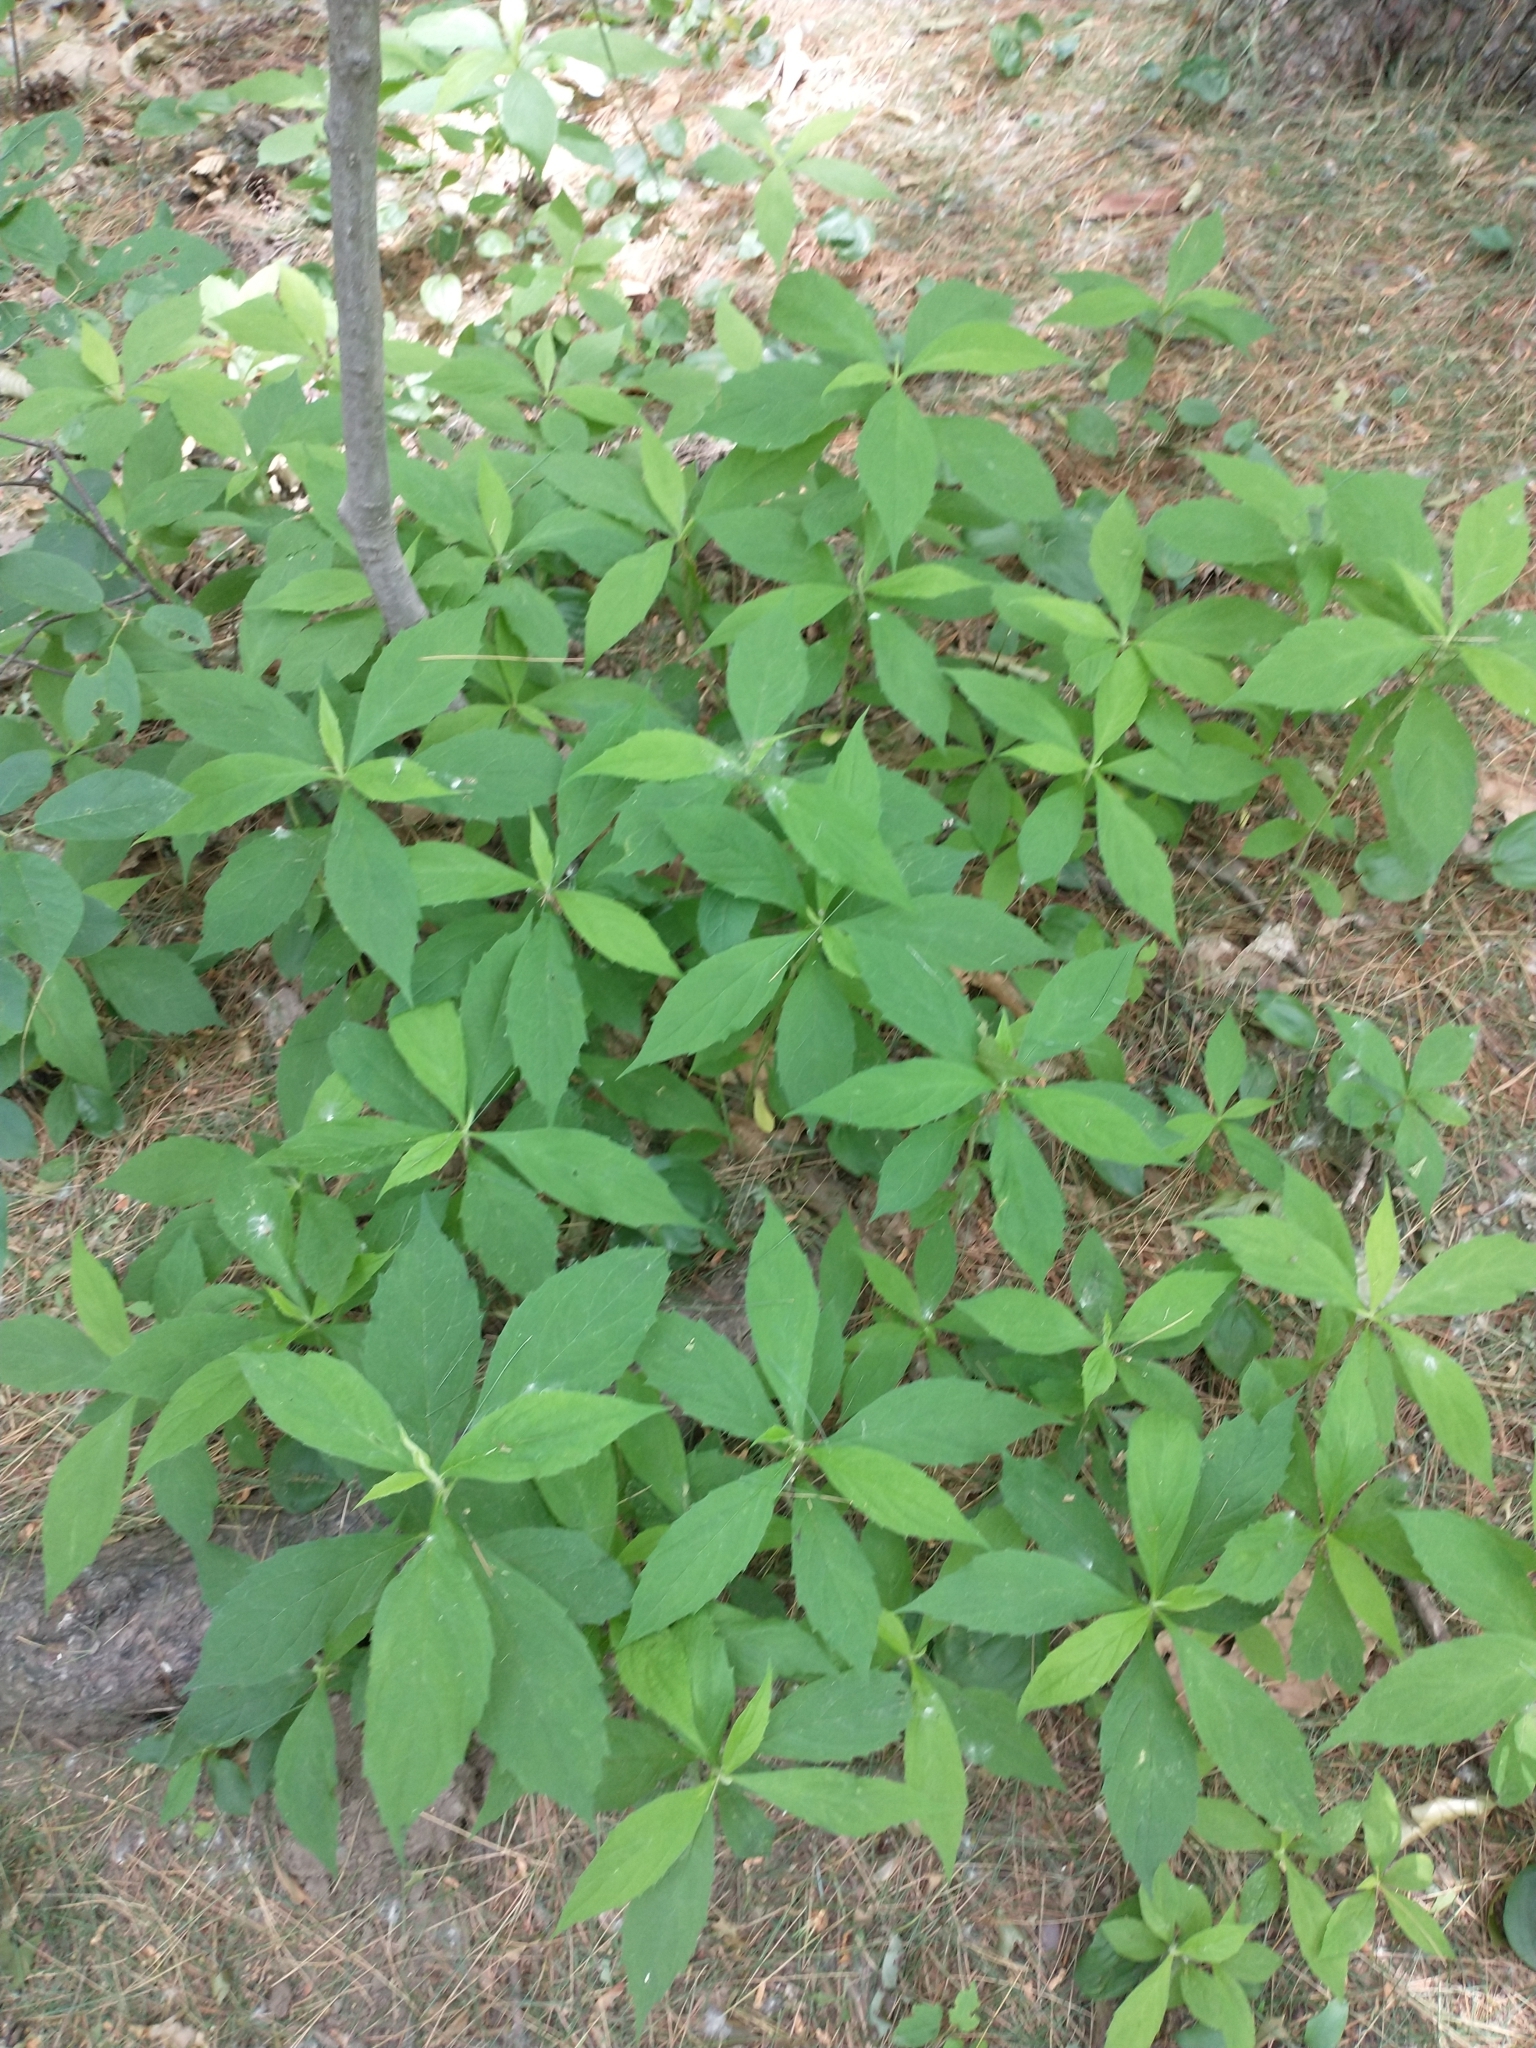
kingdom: Plantae
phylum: Tracheophyta
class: Magnoliopsida
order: Asterales
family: Asteraceae
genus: Oclemena
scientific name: Oclemena acuminata
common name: Mountain aster
